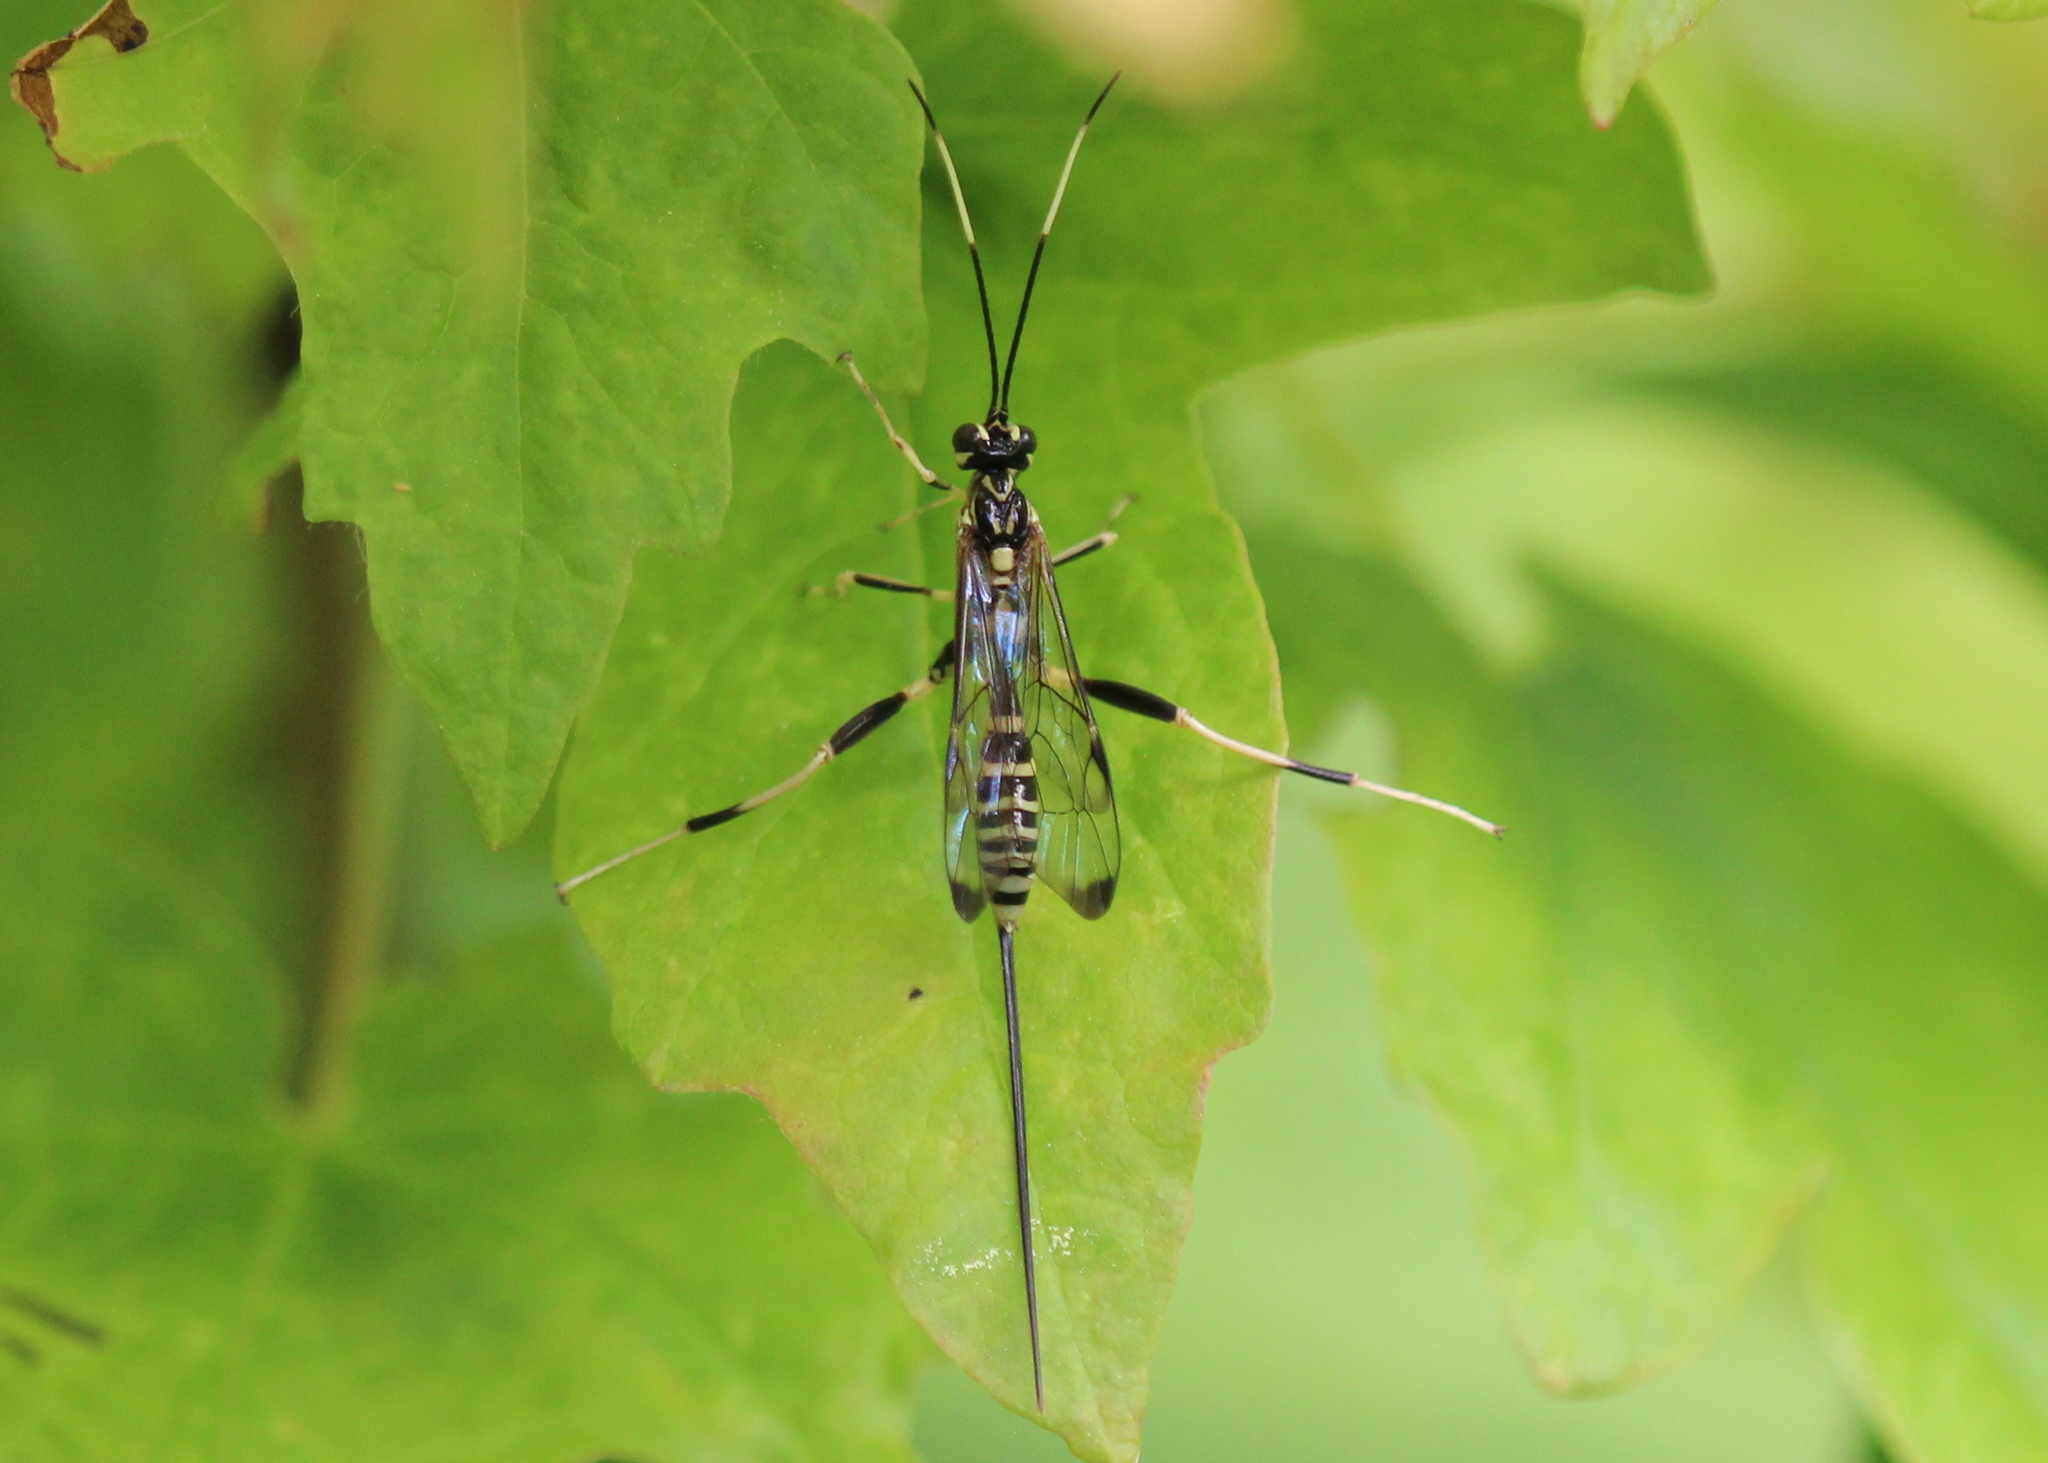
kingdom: Animalia
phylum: Arthropoda
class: Insecta
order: Hymenoptera
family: Ichneumonidae
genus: Arotes
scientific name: Arotes amoenus
